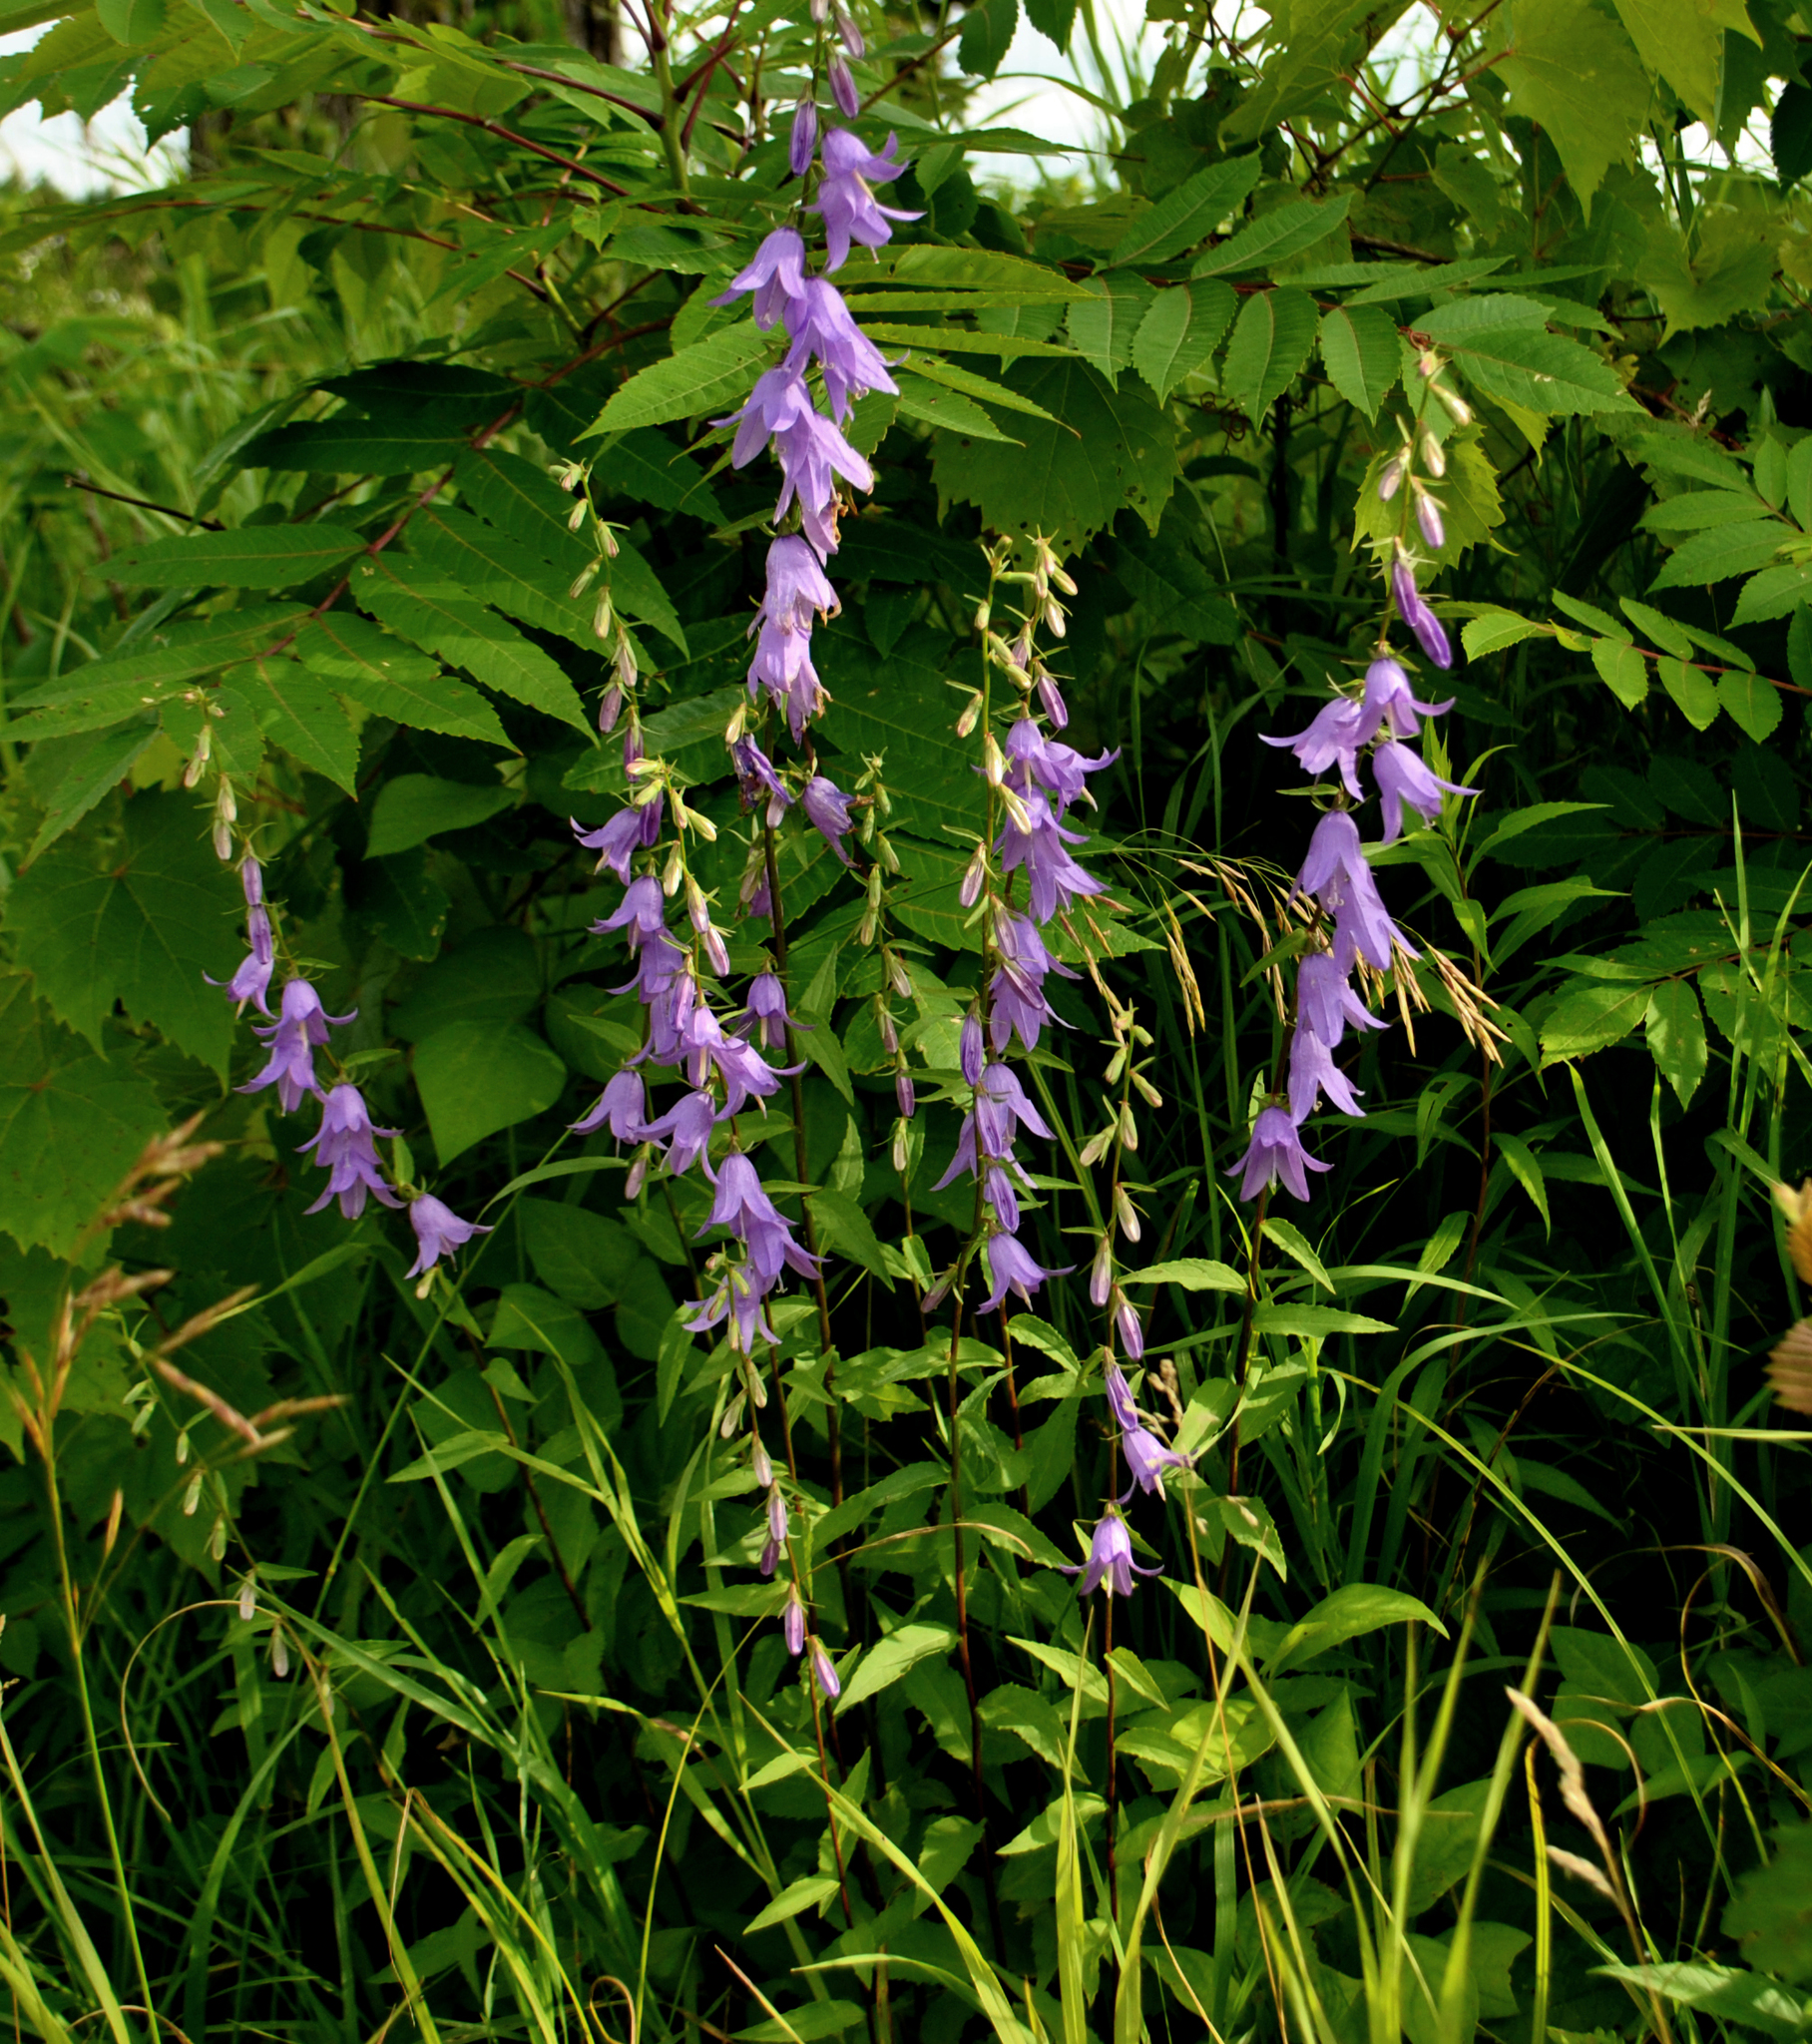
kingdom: Plantae
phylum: Tracheophyta
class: Magnoliopsida
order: Asterales
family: Campanulaceae
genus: Campanula
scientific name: Campanula rapunculoides
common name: Creeping bellflower
